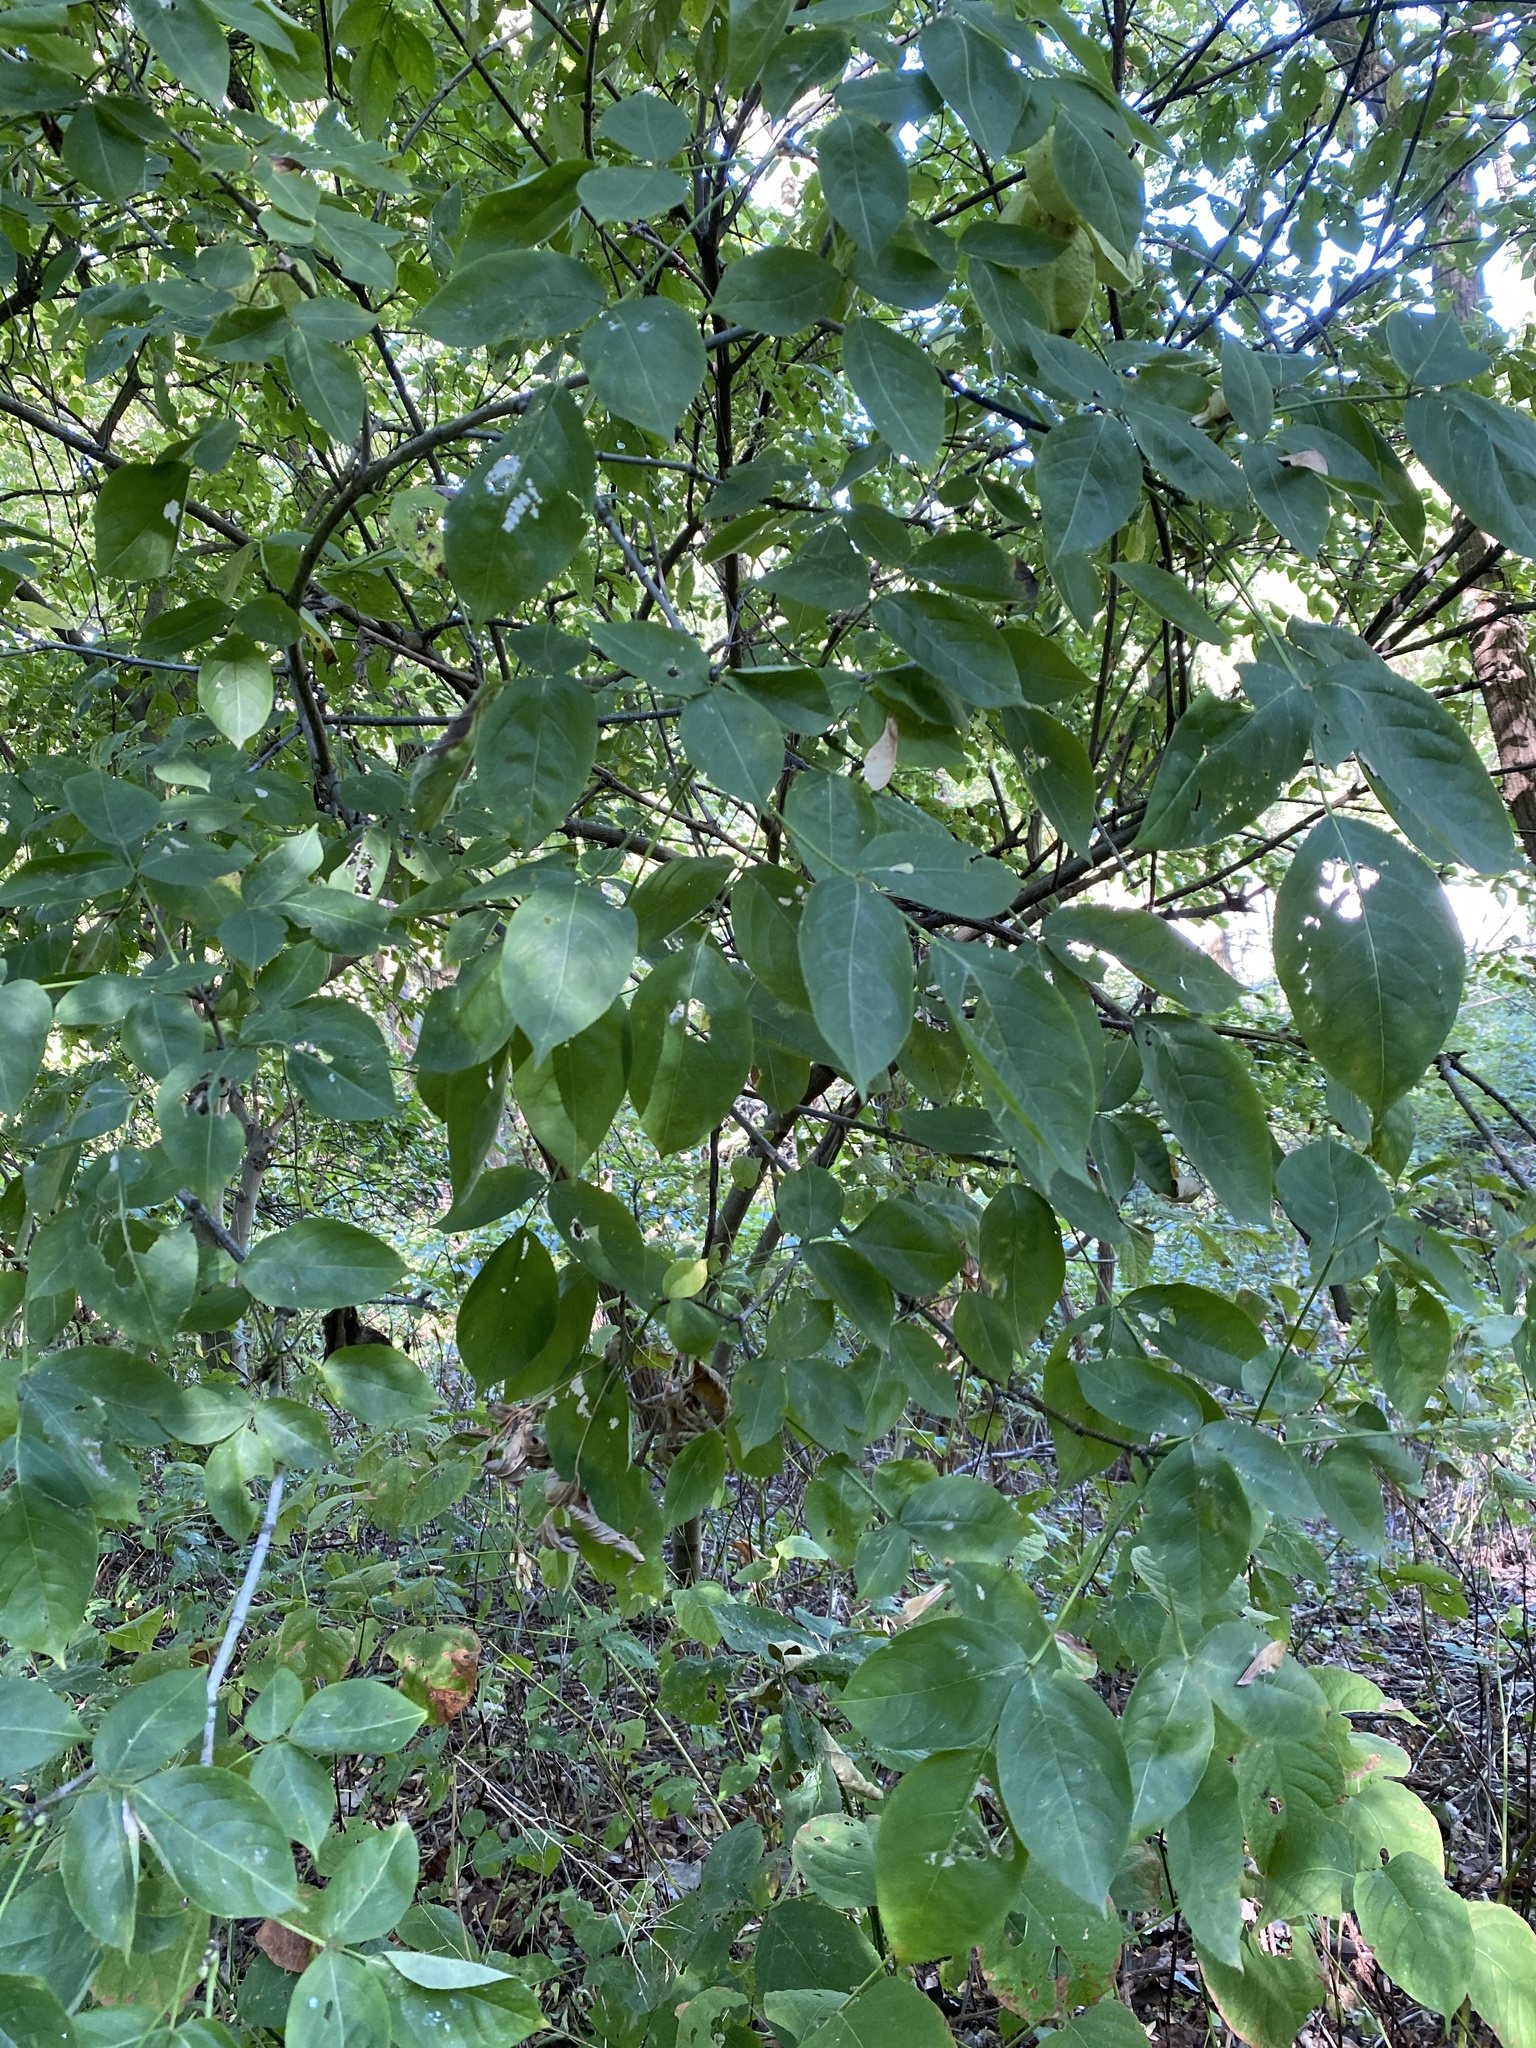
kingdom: Plantae
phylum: Tracheophyta
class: Magnoliopsida
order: Crossosomatales
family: Staphyleaceae
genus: Staphylea
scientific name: Staphylea trifolia
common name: American bladdernut
